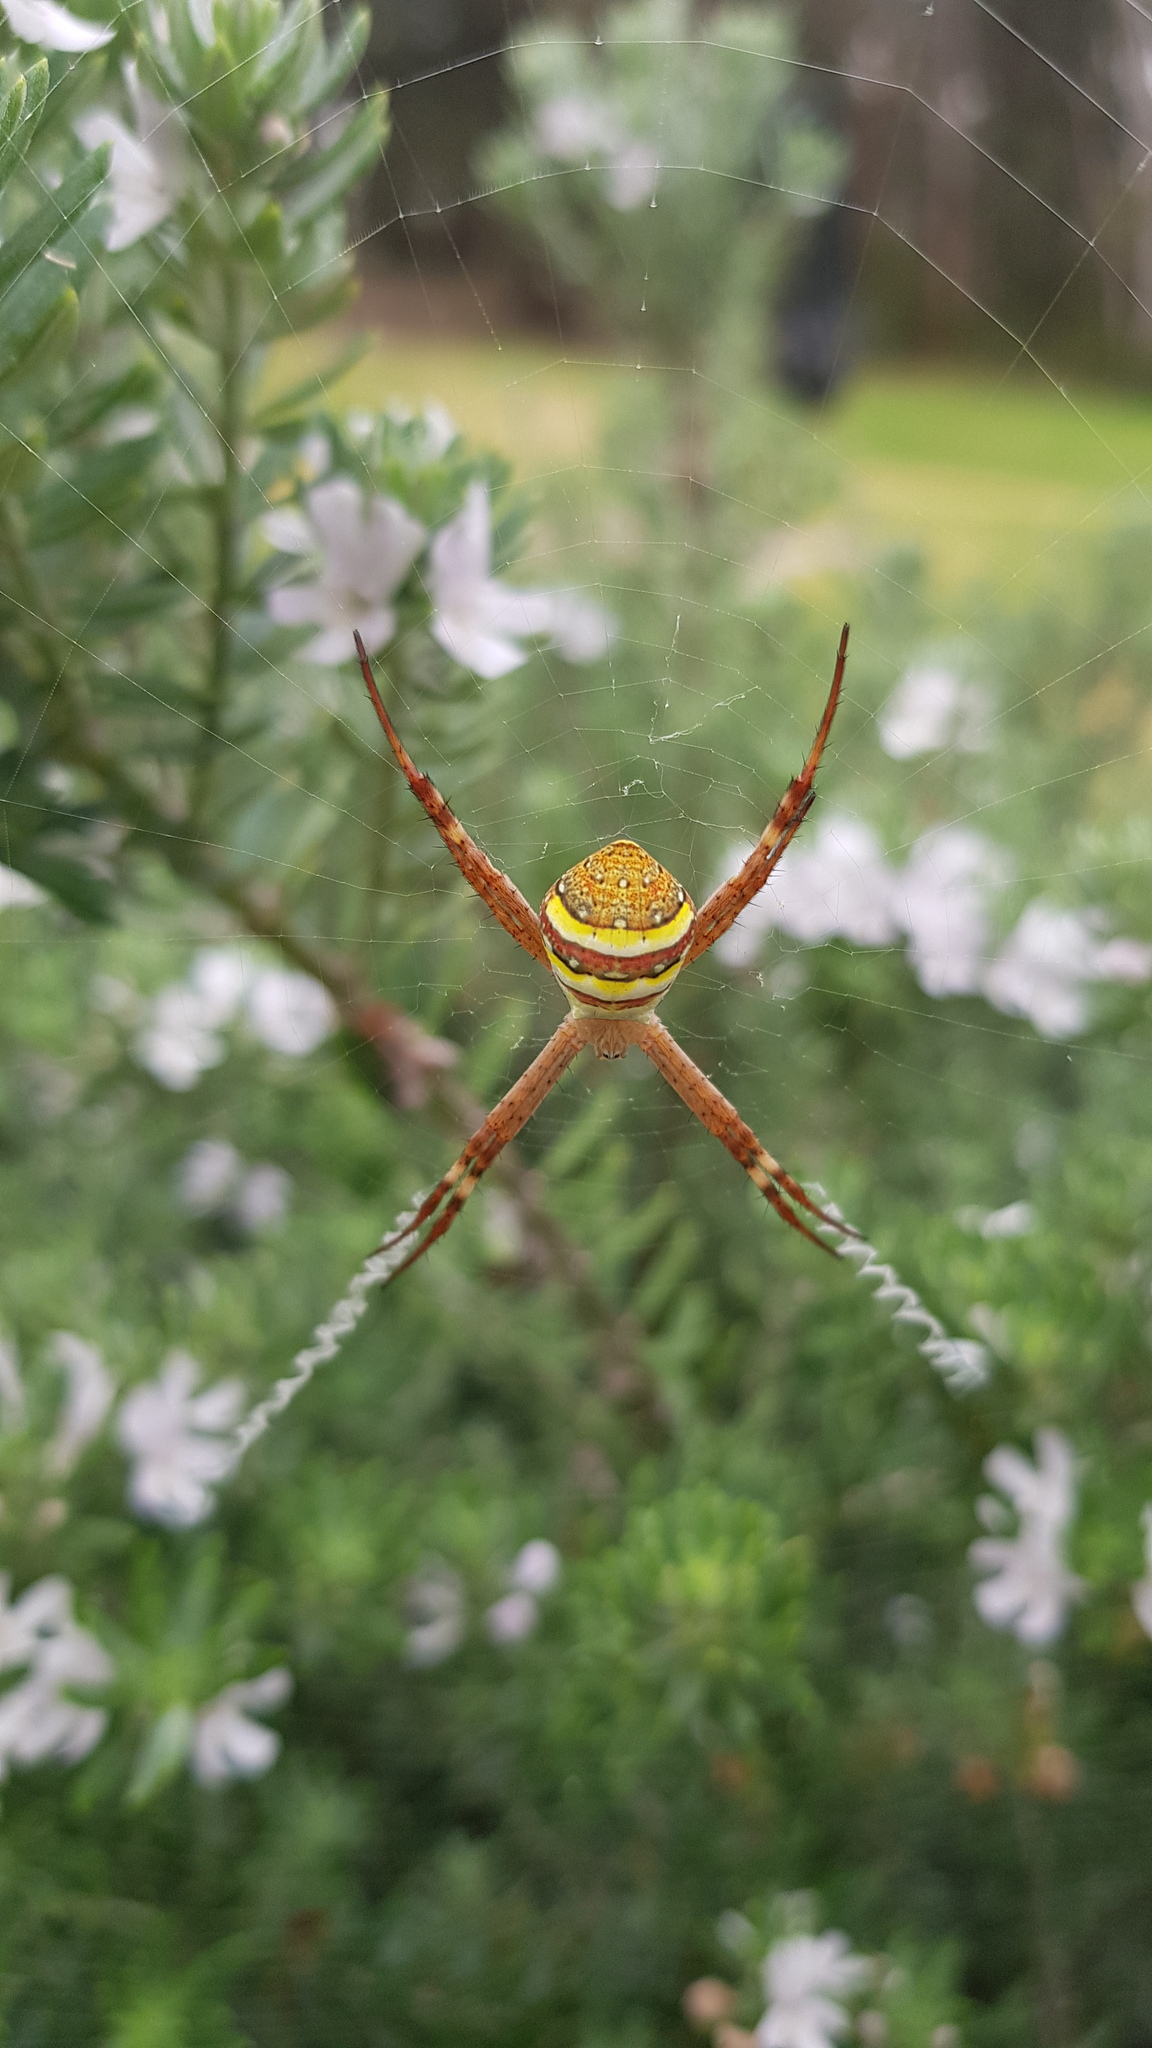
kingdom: Animalia
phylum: Arthropoda
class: Arachnida
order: Araneae
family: Araneidae
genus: Argiope
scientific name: Argiope keyserlingi
